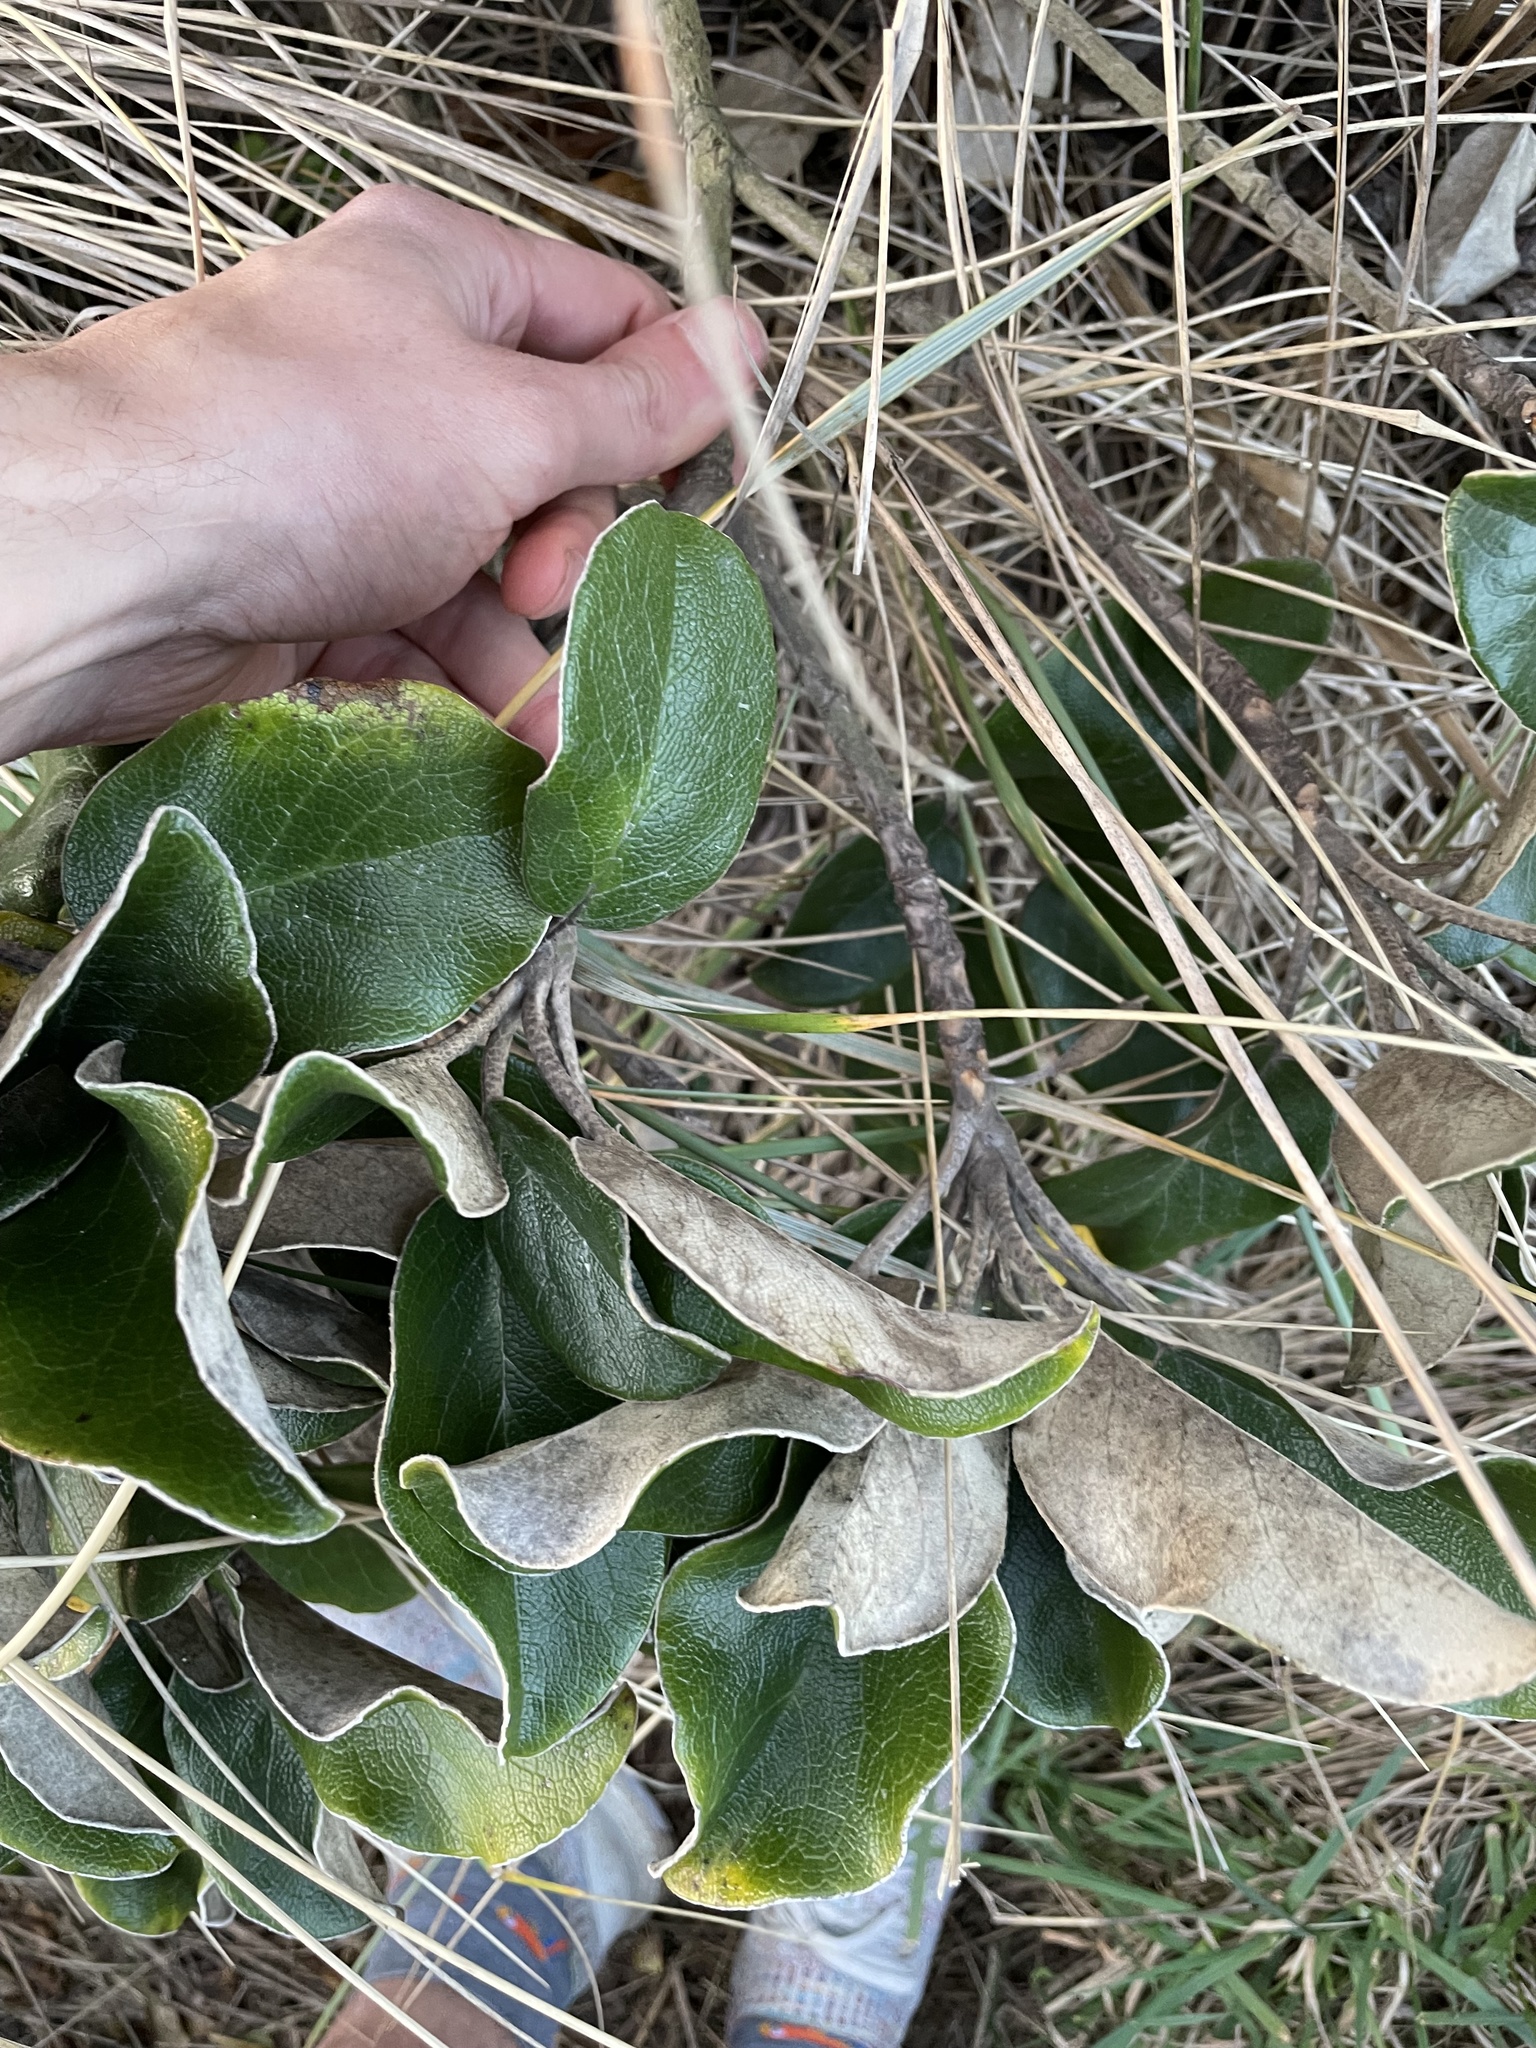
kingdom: Plantae
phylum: Tracheophyta
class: Magnoliopsida
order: Asterales
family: Asteraceae
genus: Brachyglottis
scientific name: Brachyglottis rotundifolia
